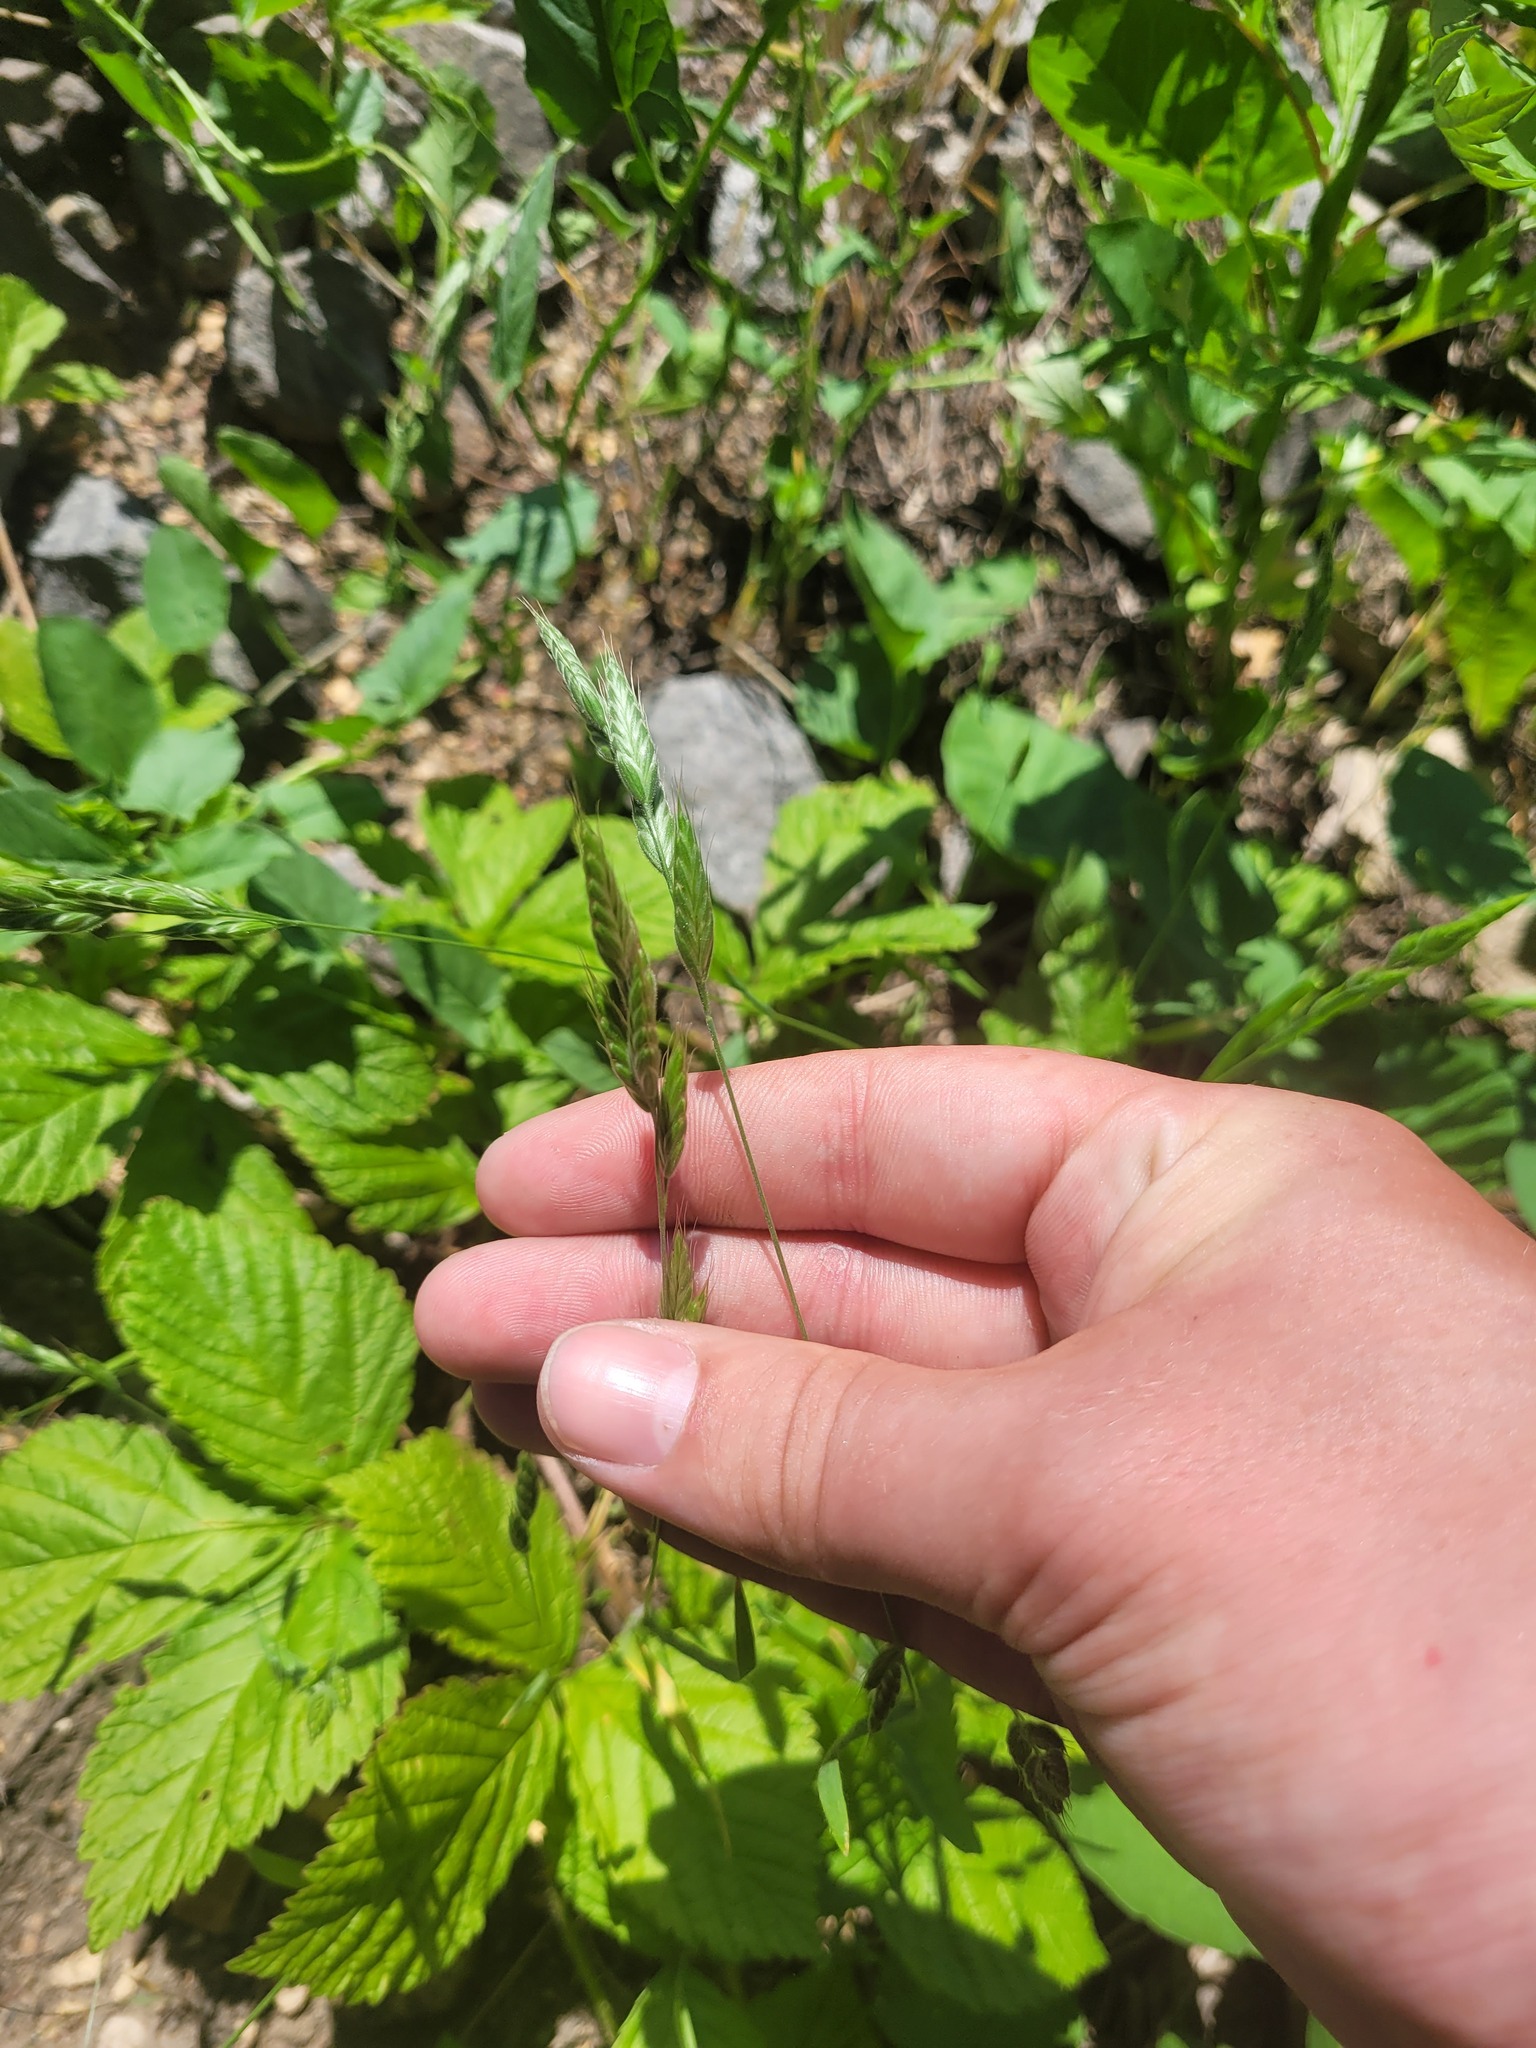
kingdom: Plantae
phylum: Tracheophyta
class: Liliopsida
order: Poales
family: Poaceae
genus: Bromus
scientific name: Bromus hordeaceus
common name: Soft brome
